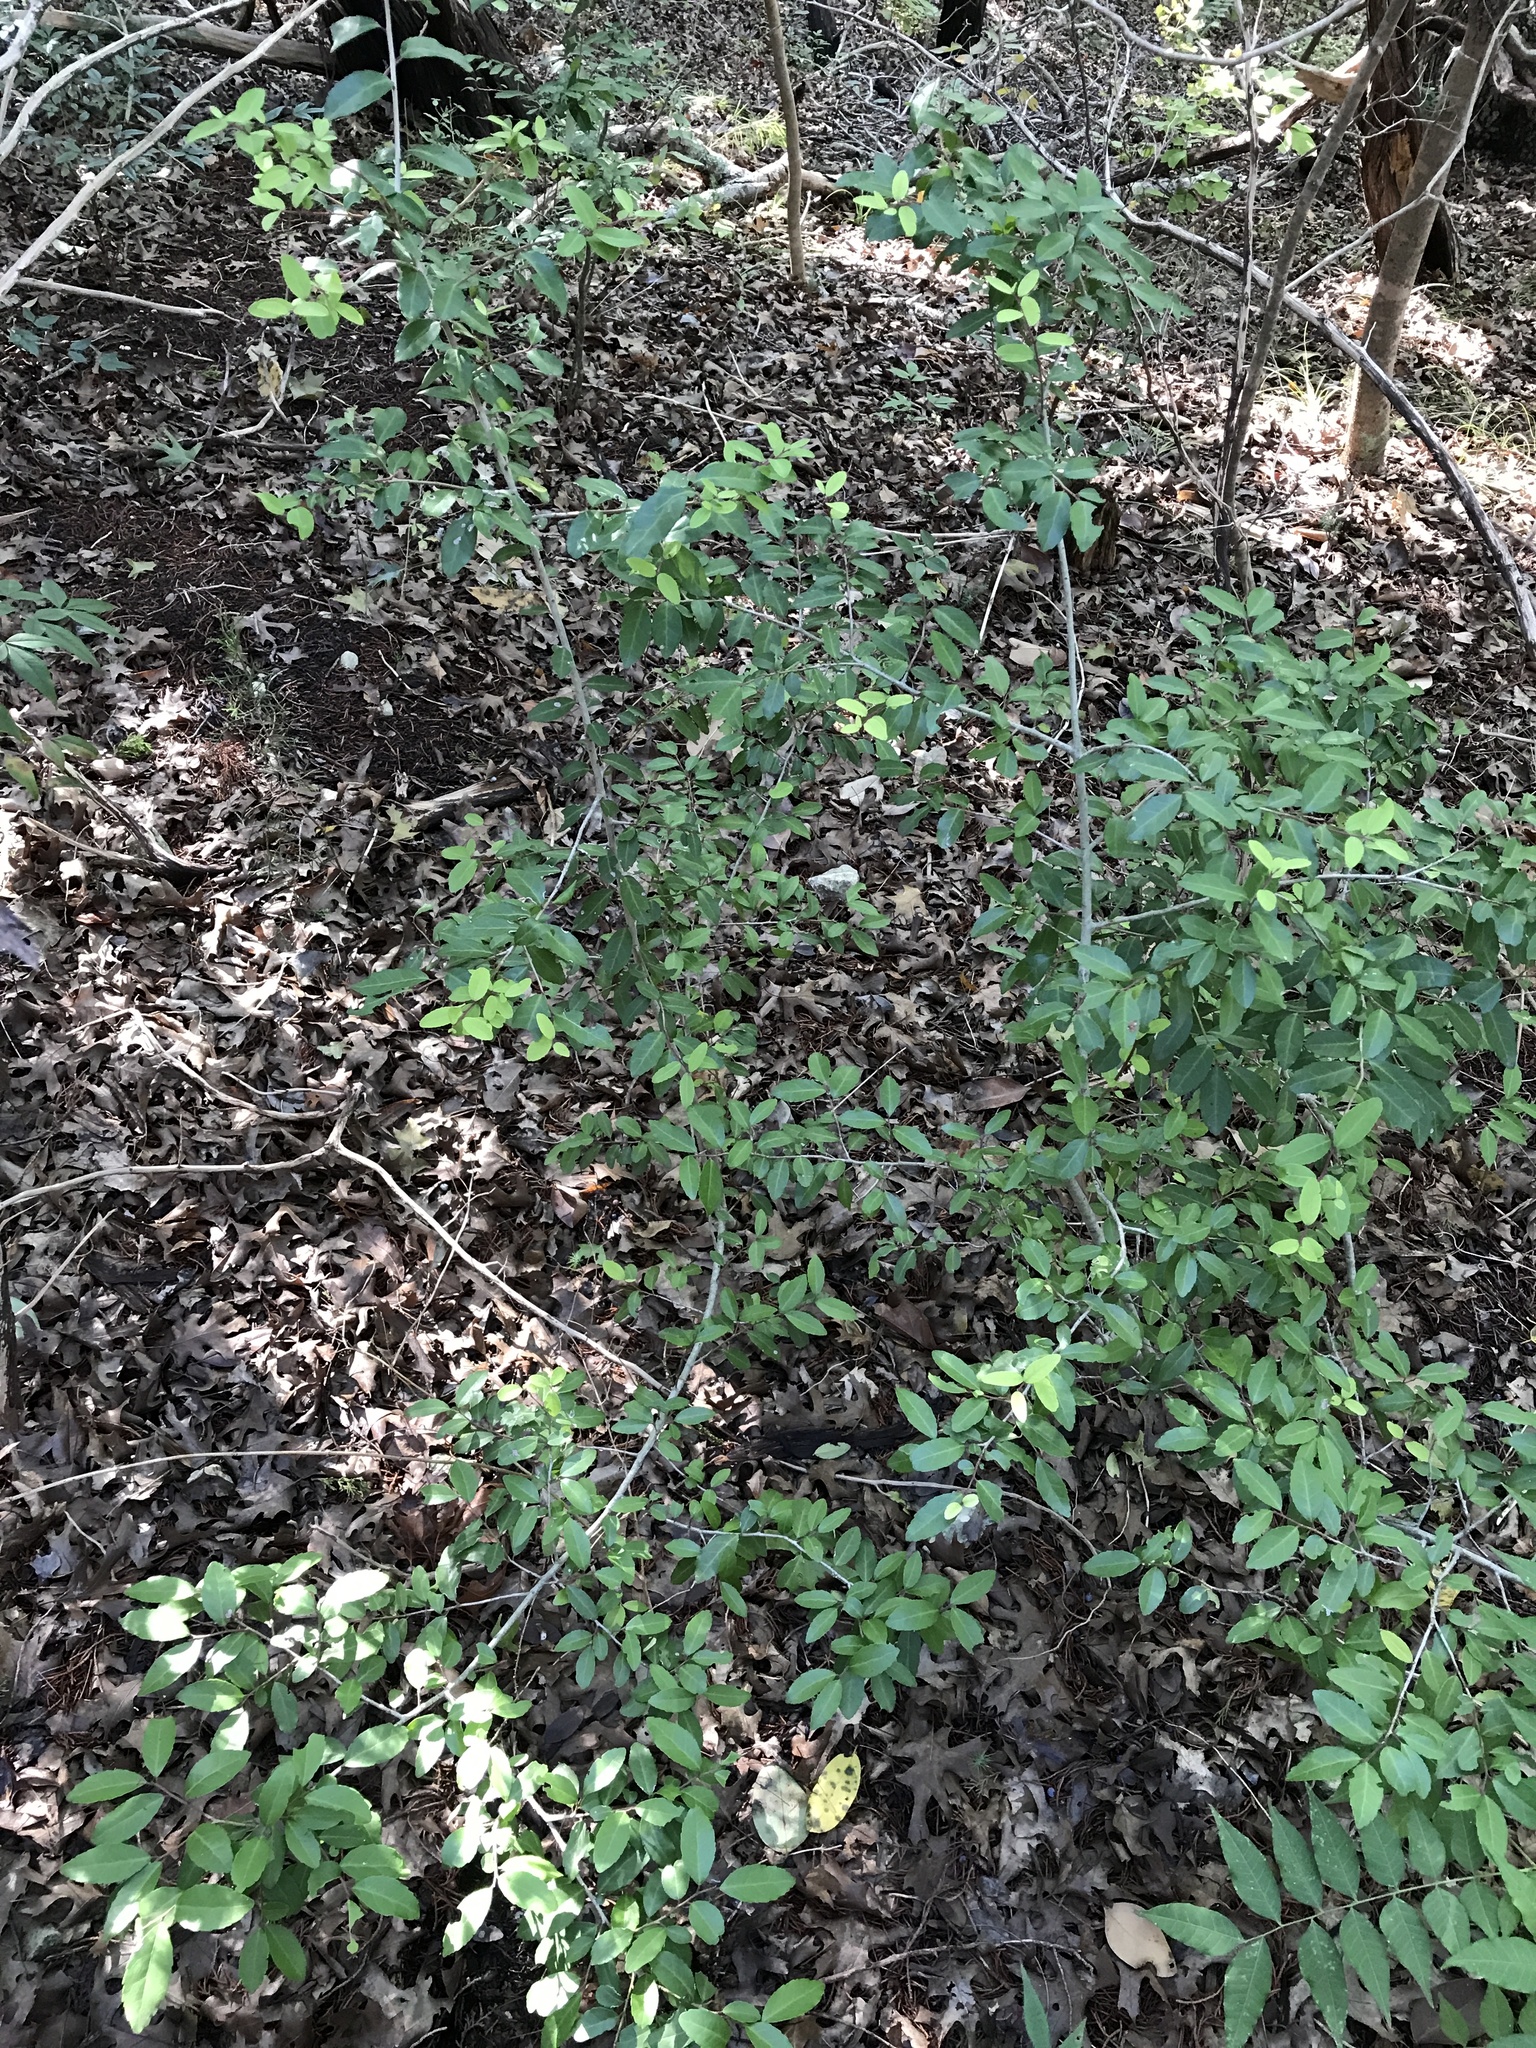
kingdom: Plantae
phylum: Tracheophyta
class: Magnoliopsida
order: Aquifoliales
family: Aquifoliaceae
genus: Ilex
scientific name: Ilex vomitoria
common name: Yaupon holly
